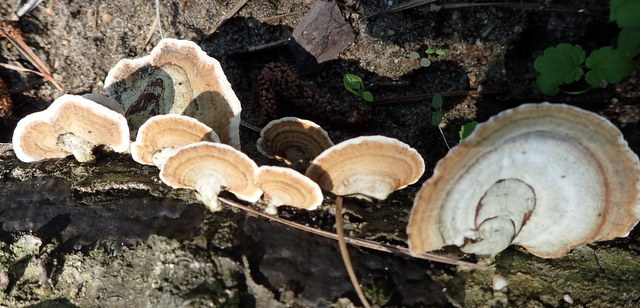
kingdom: Fungi
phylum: Basidiomycota
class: Agaricomycetes
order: Russulales
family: Stereaceae
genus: Stereum
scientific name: Stereum ostrea
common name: False turkeytail
